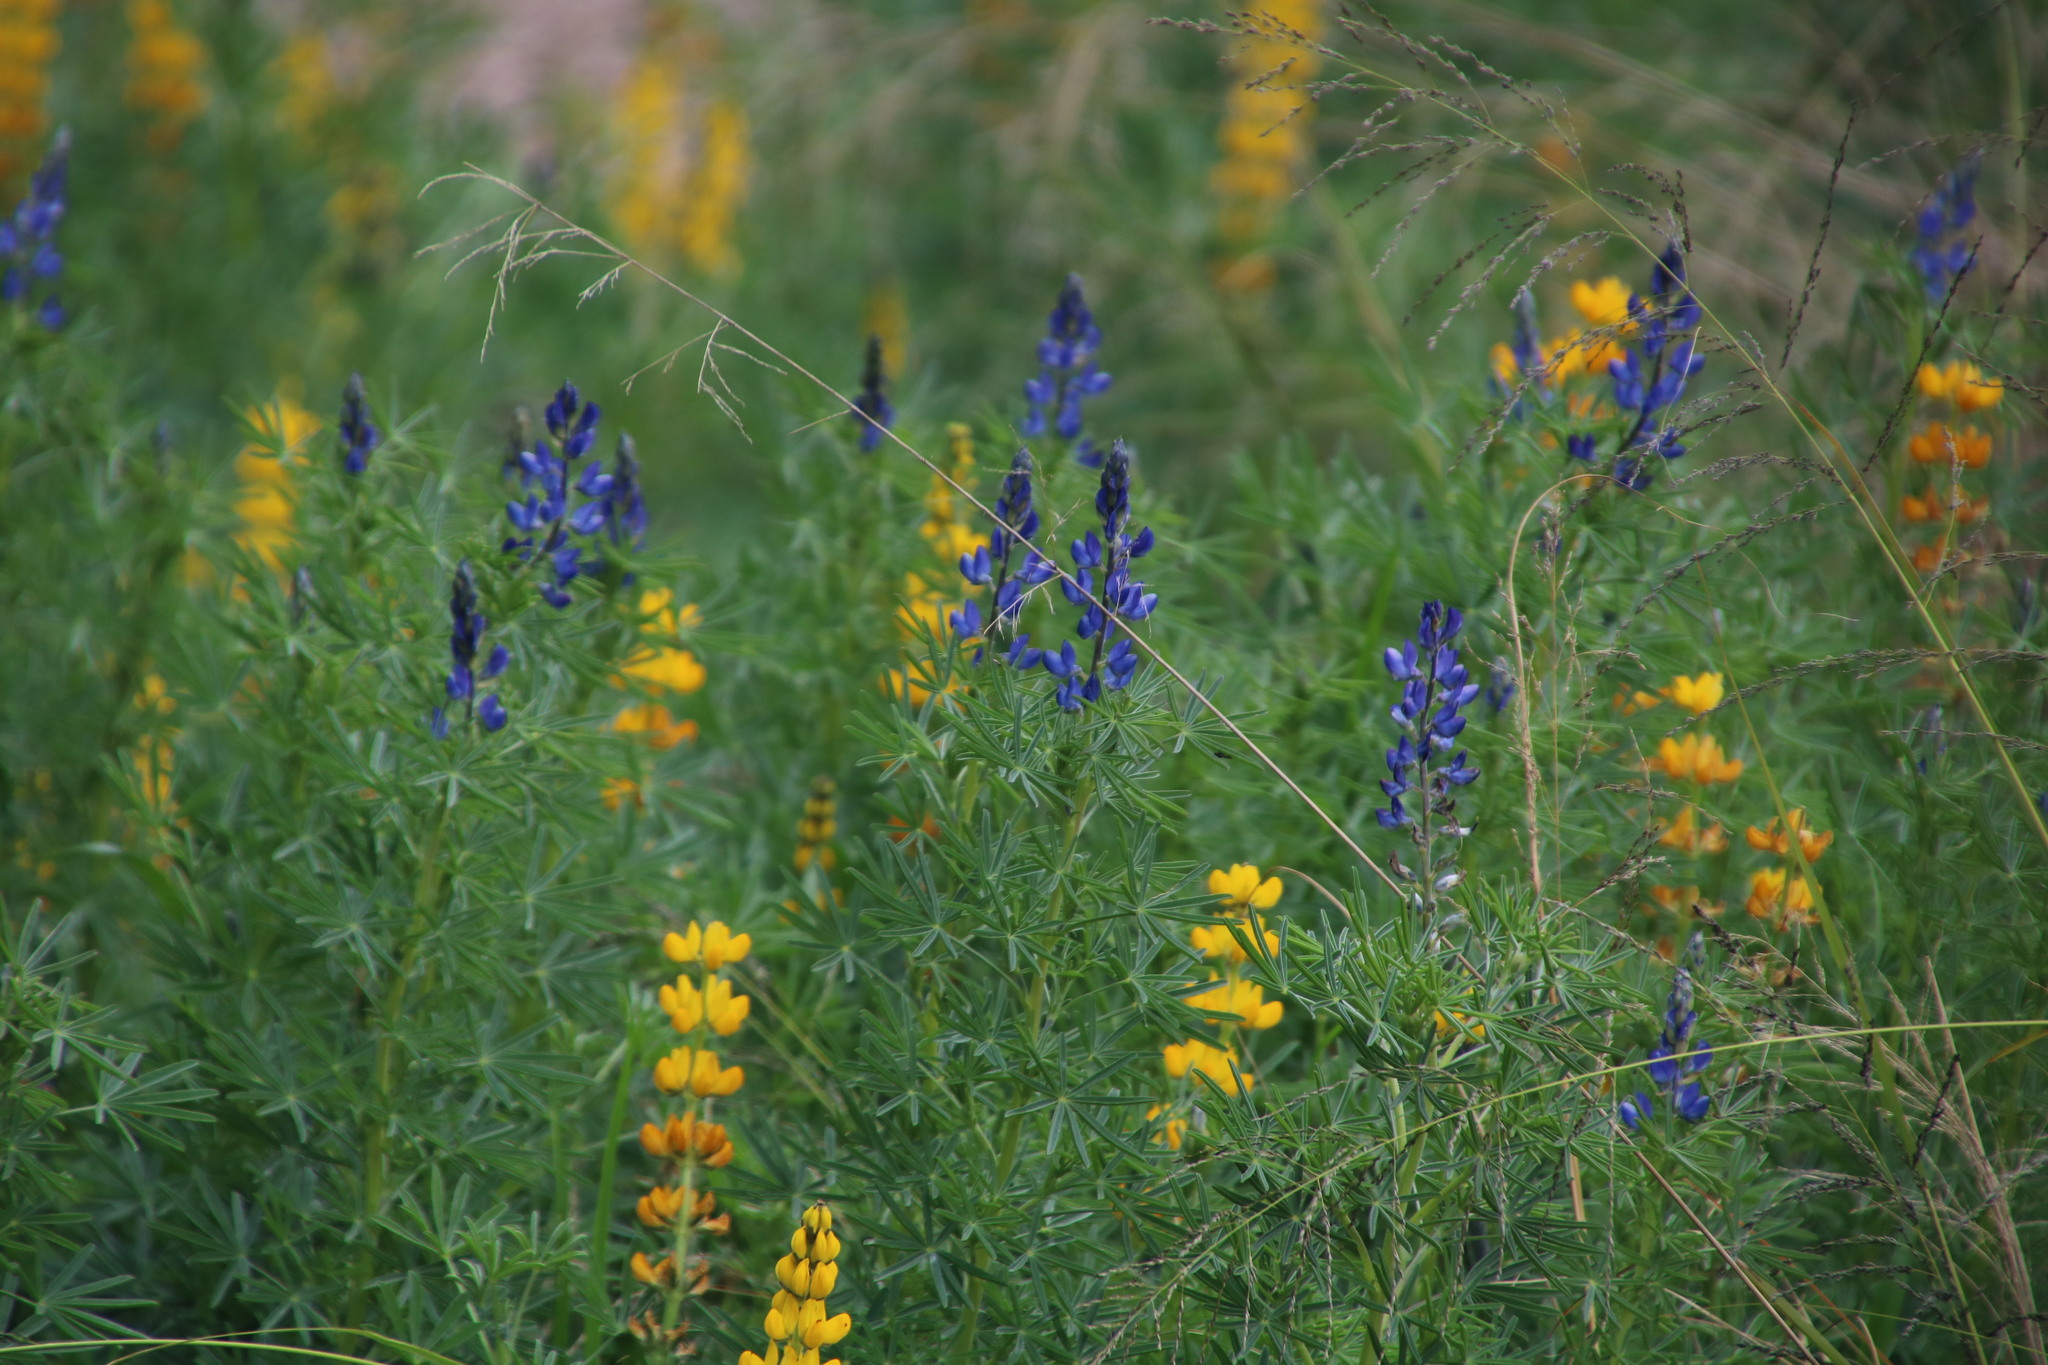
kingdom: Plantae
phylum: Tracheophyta
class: Magnoliopsida
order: Fabales
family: Fabaceae
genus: Lupinus
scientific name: Lupinus angustifolius
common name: Narrow-leaved lupin
